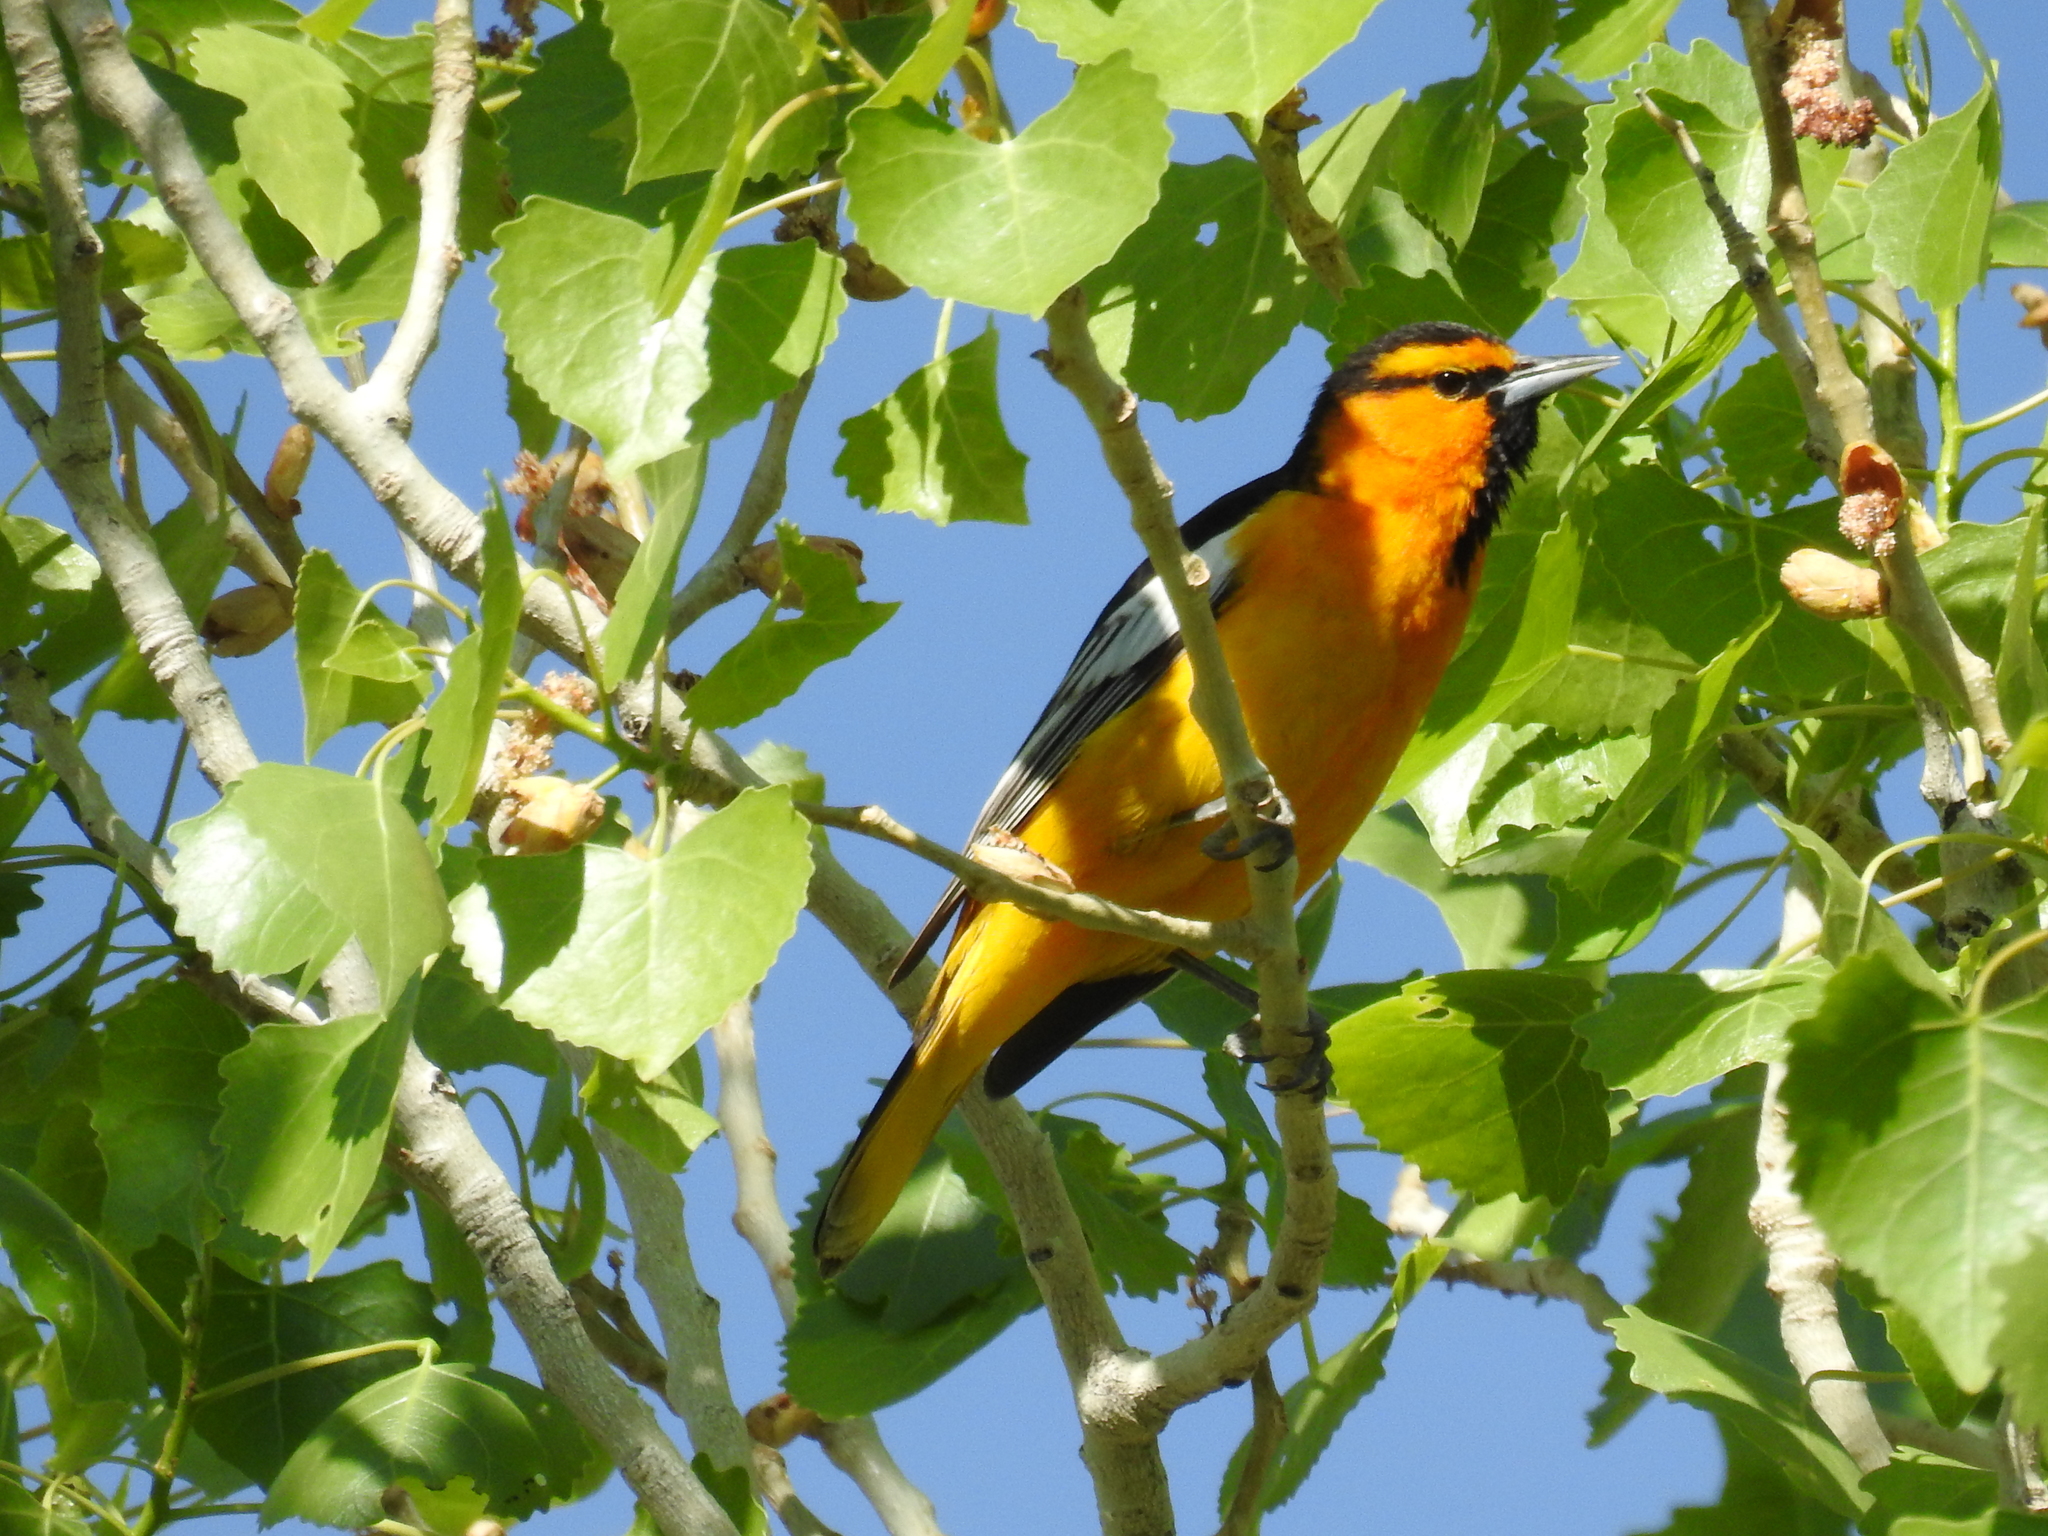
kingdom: Animalia
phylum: Chordata
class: Aves
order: Passeriformes
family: Icteridae
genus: Icterus
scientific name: Icterus bullockii
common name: Bullock's oriole
